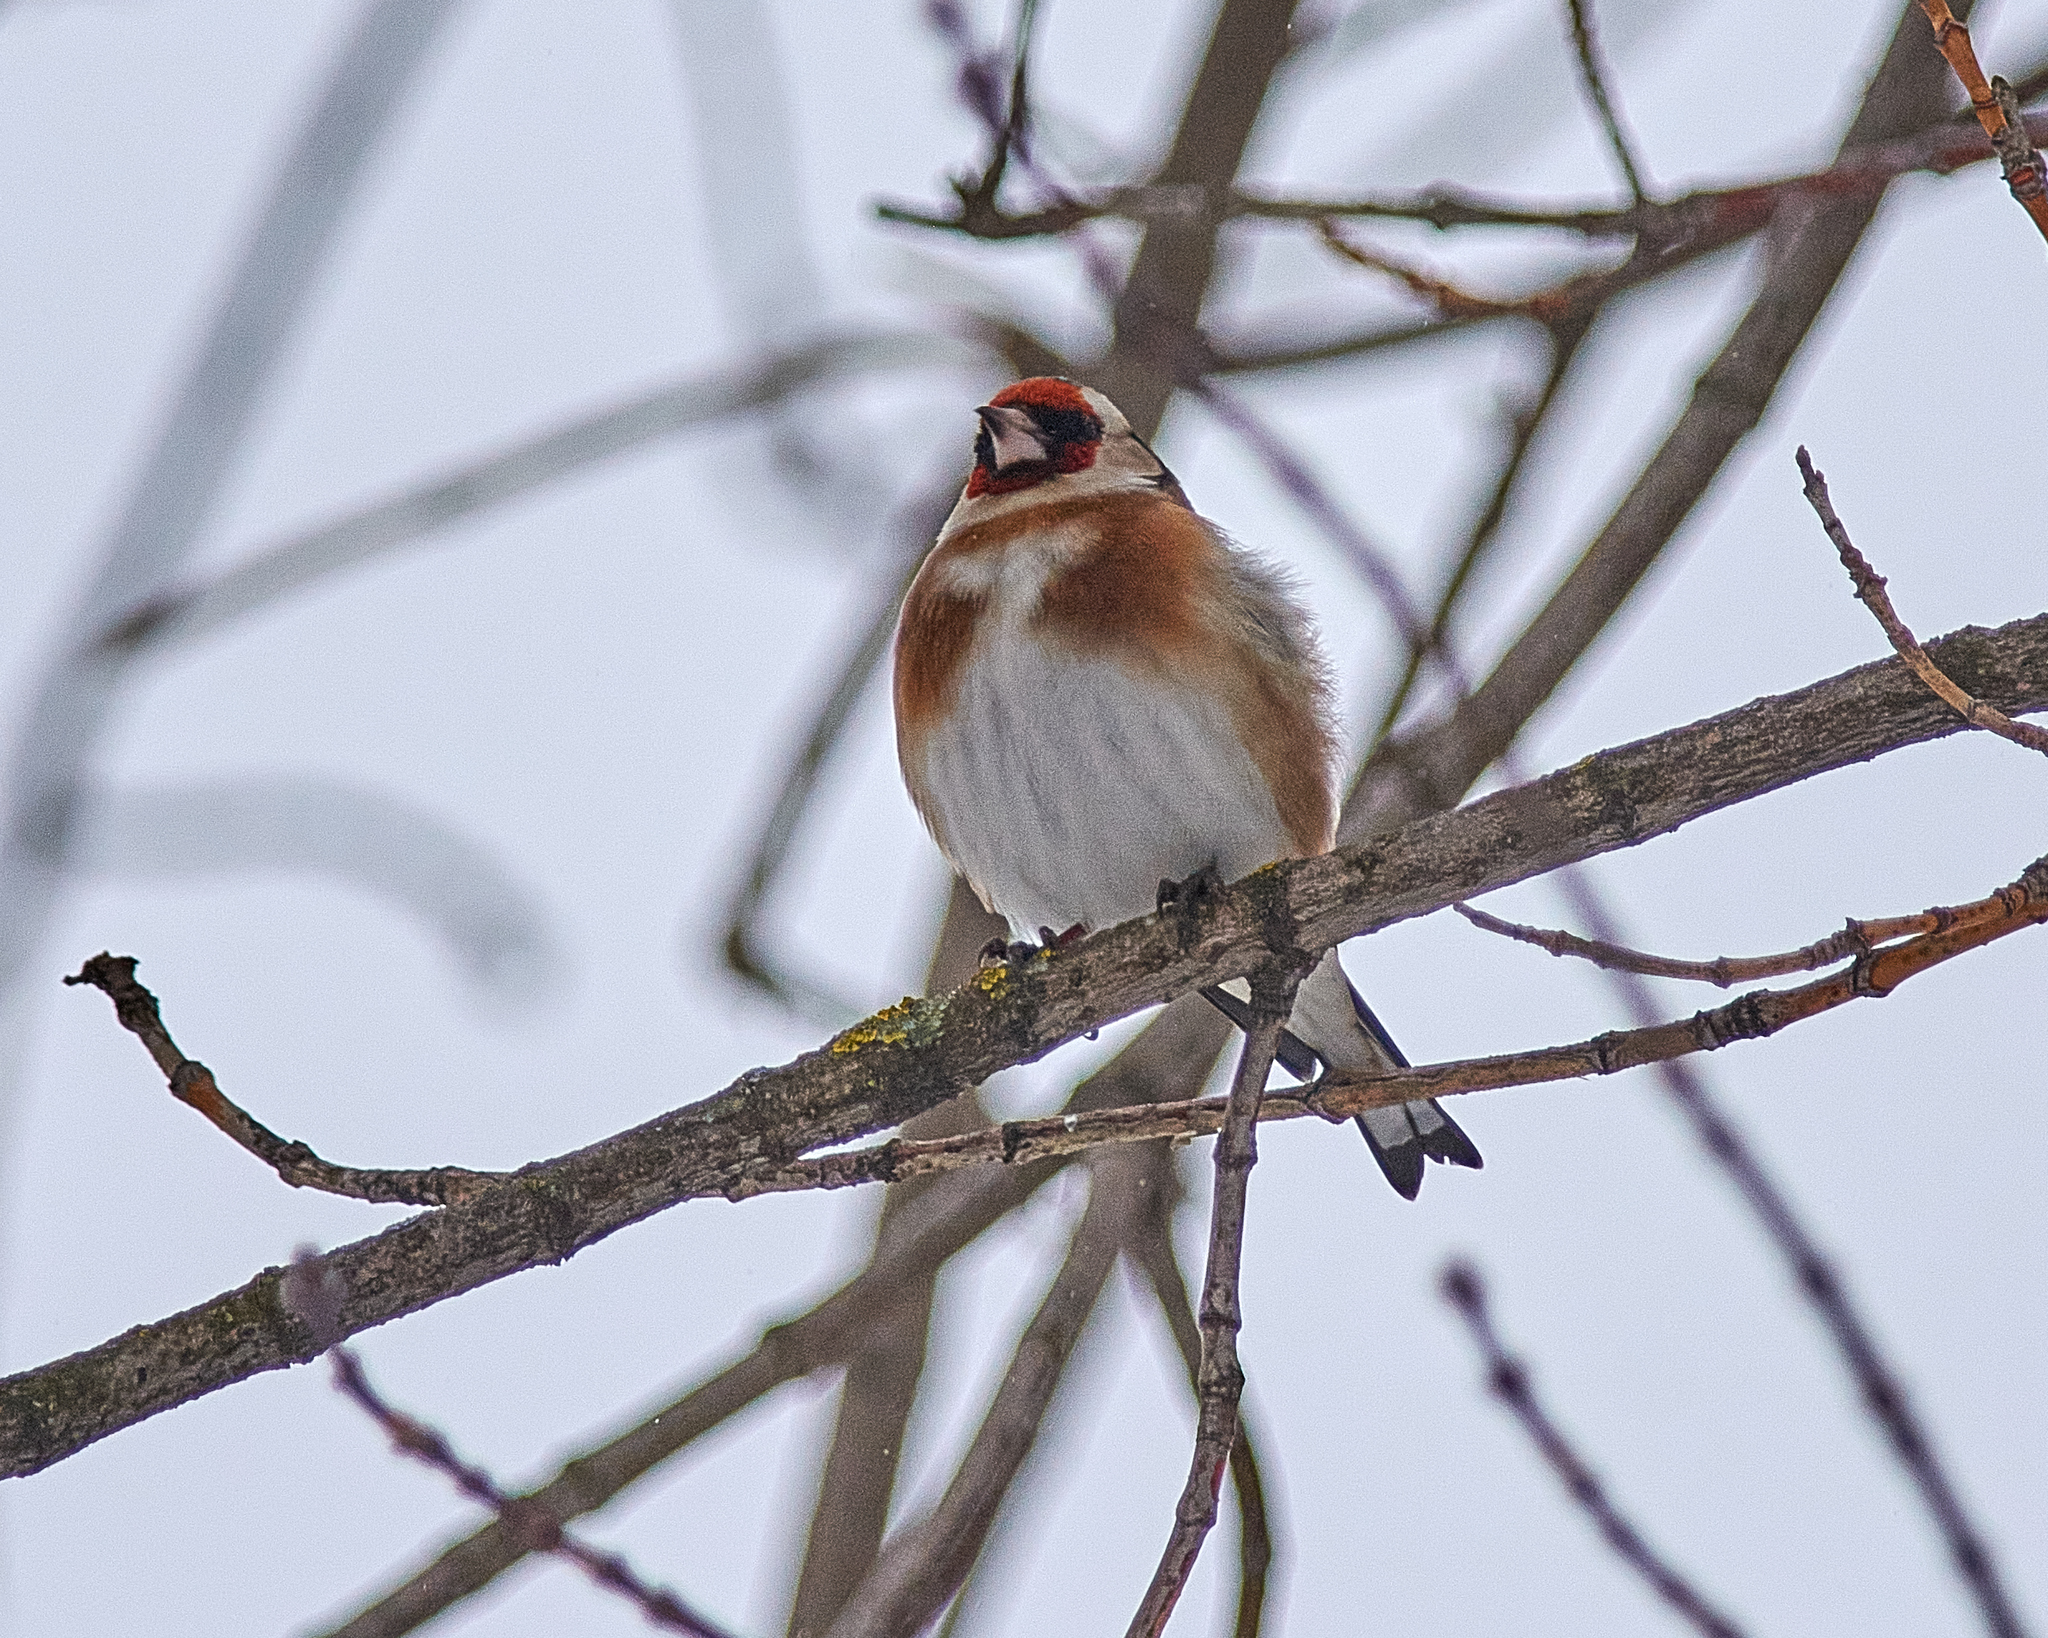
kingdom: Animalia
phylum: Chordata
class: Aves
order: Passeriformes
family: Fringillidae
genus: Carduelis
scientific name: Carduelis carduelis
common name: European goldfinch
